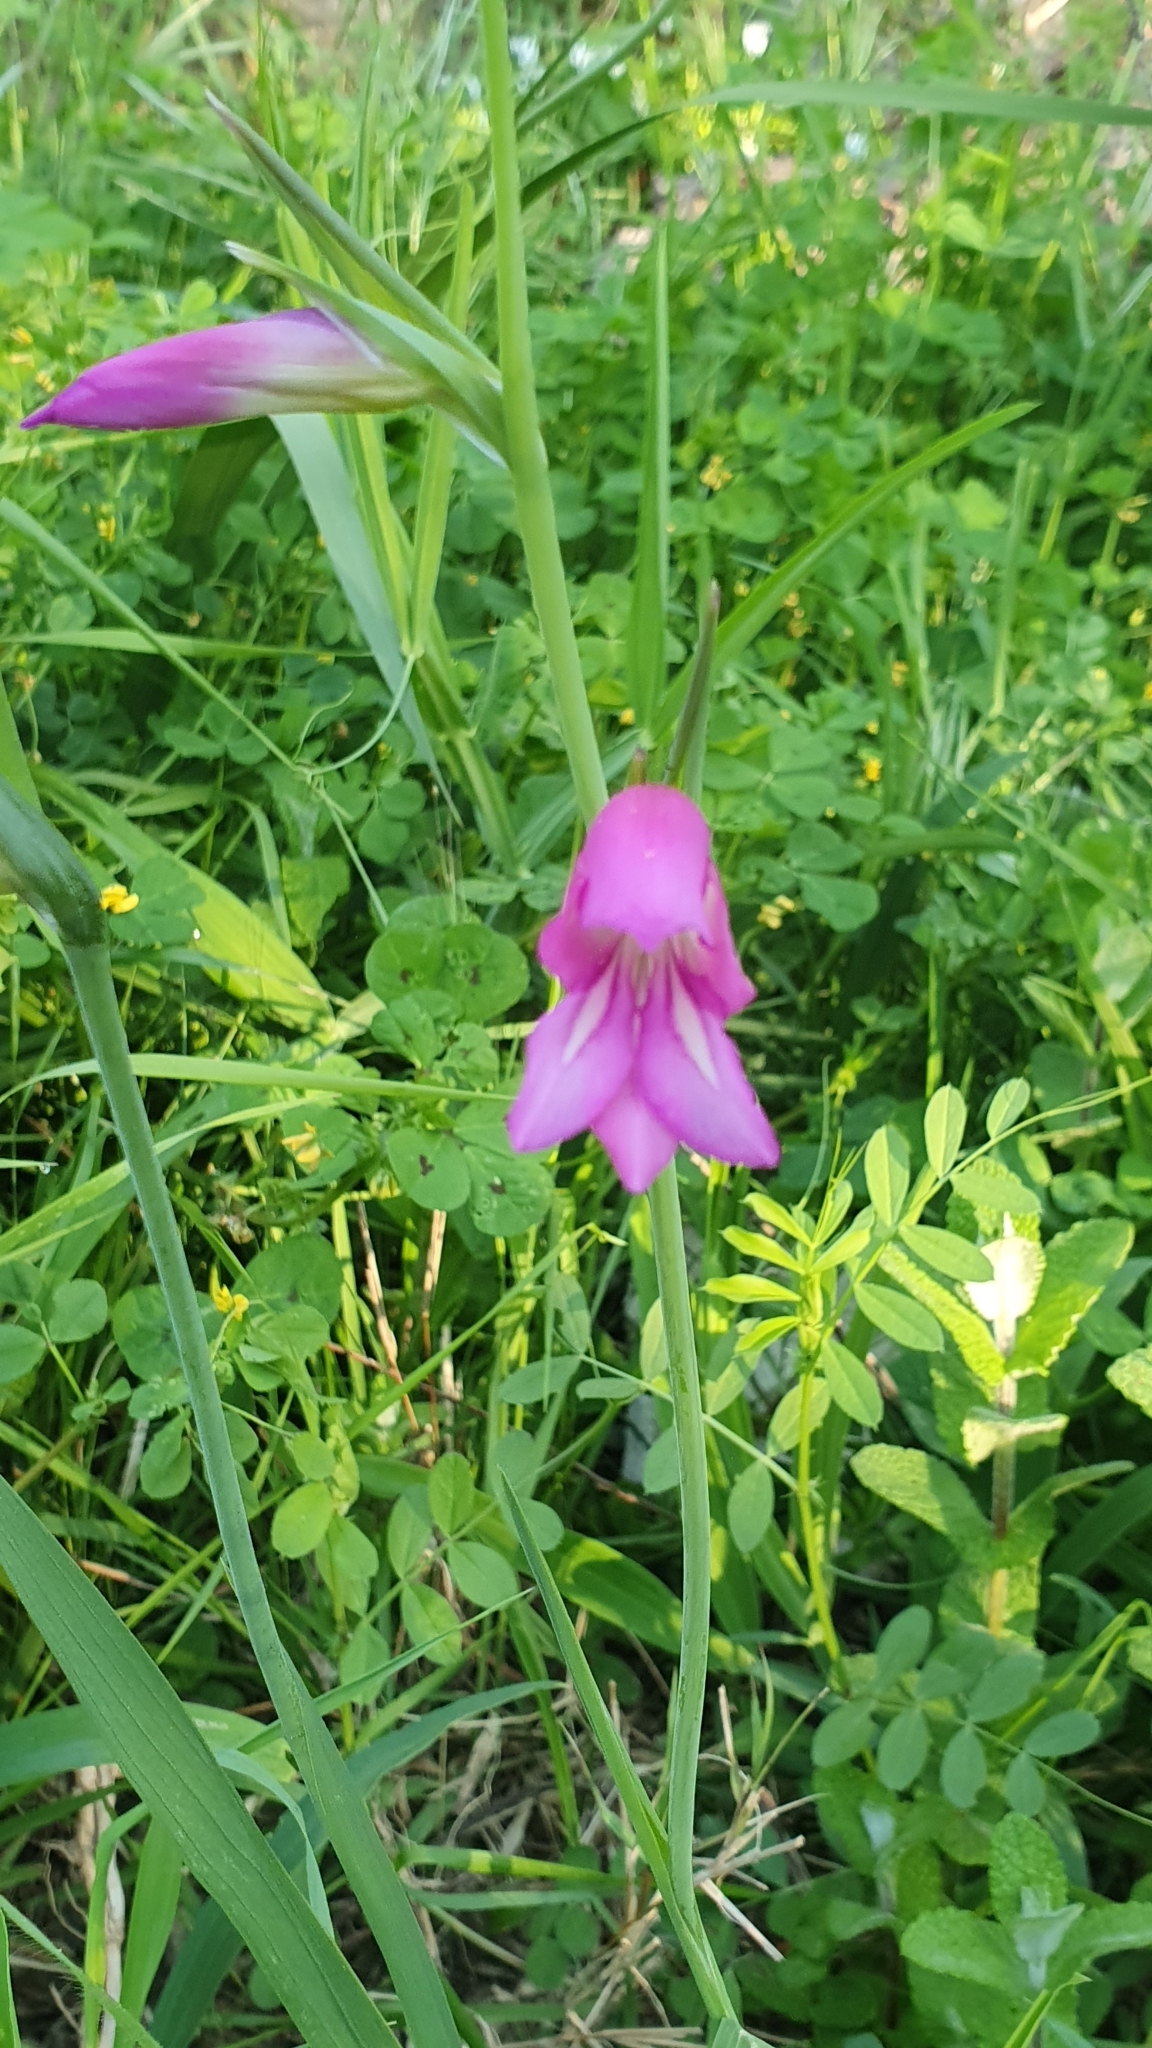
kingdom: Plantae
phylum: Tracheophyta
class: Liliopsida
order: Asparagales
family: Iridaceae
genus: Gladiolus
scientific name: Gladiolus italicus
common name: Field gladiolus
